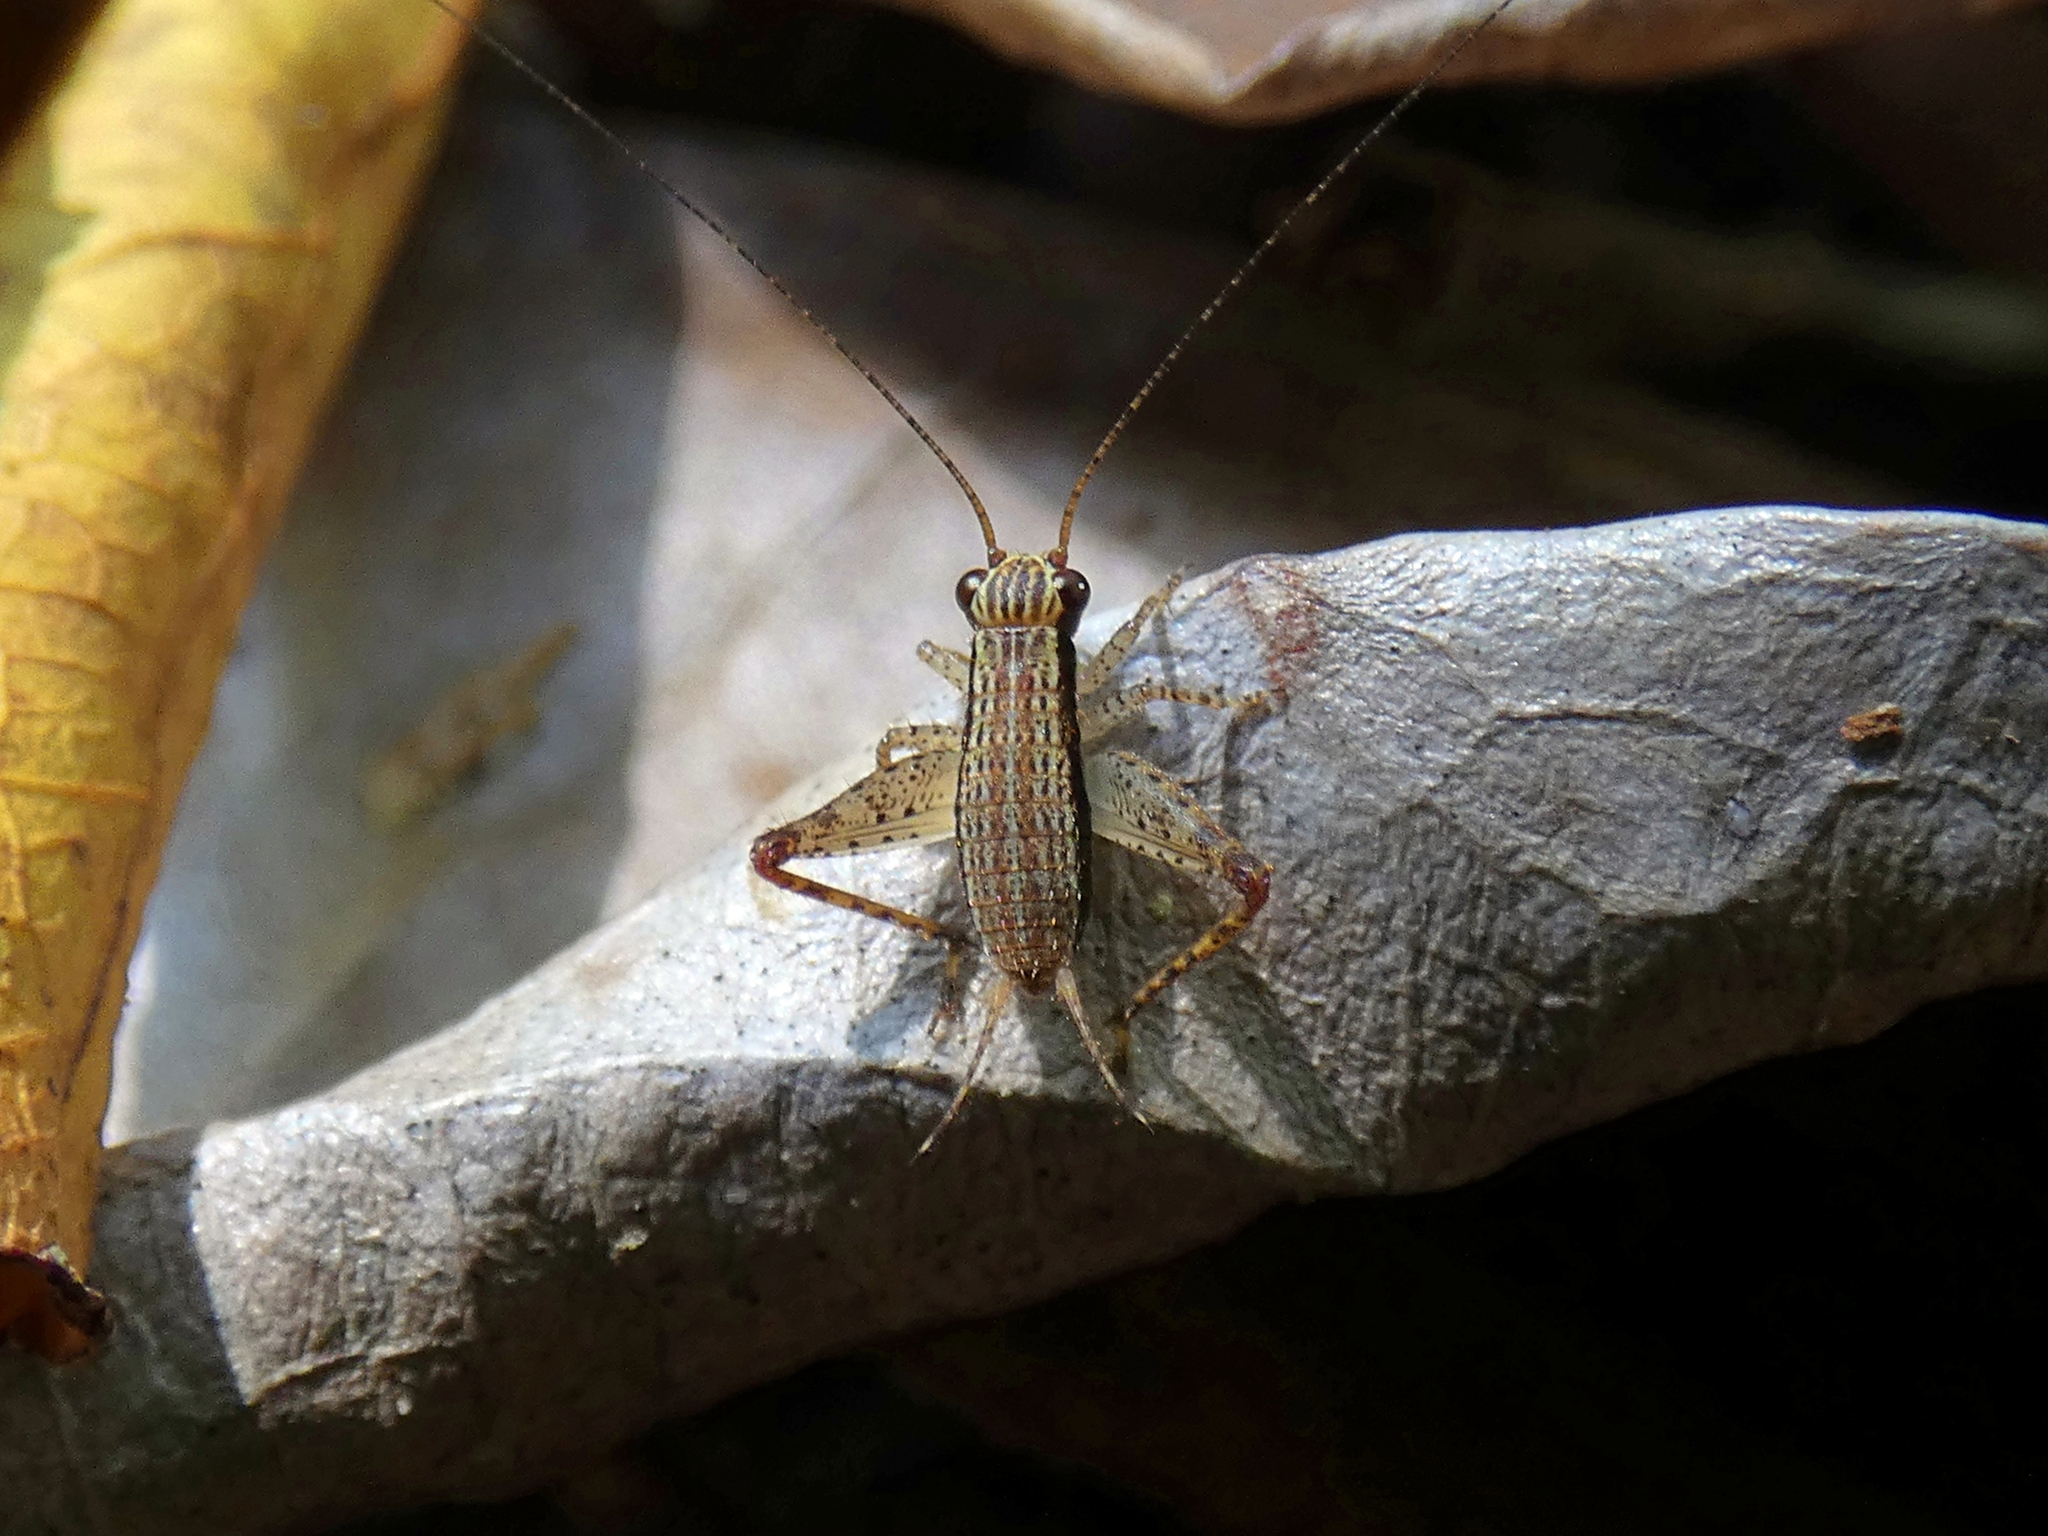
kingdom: Animalia
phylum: Arthropoda
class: Insecta
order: Orthoptera
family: Gryllidae
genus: Cardiodactylus
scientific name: Cardiodactylus novaeguineae
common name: Sad cricket
